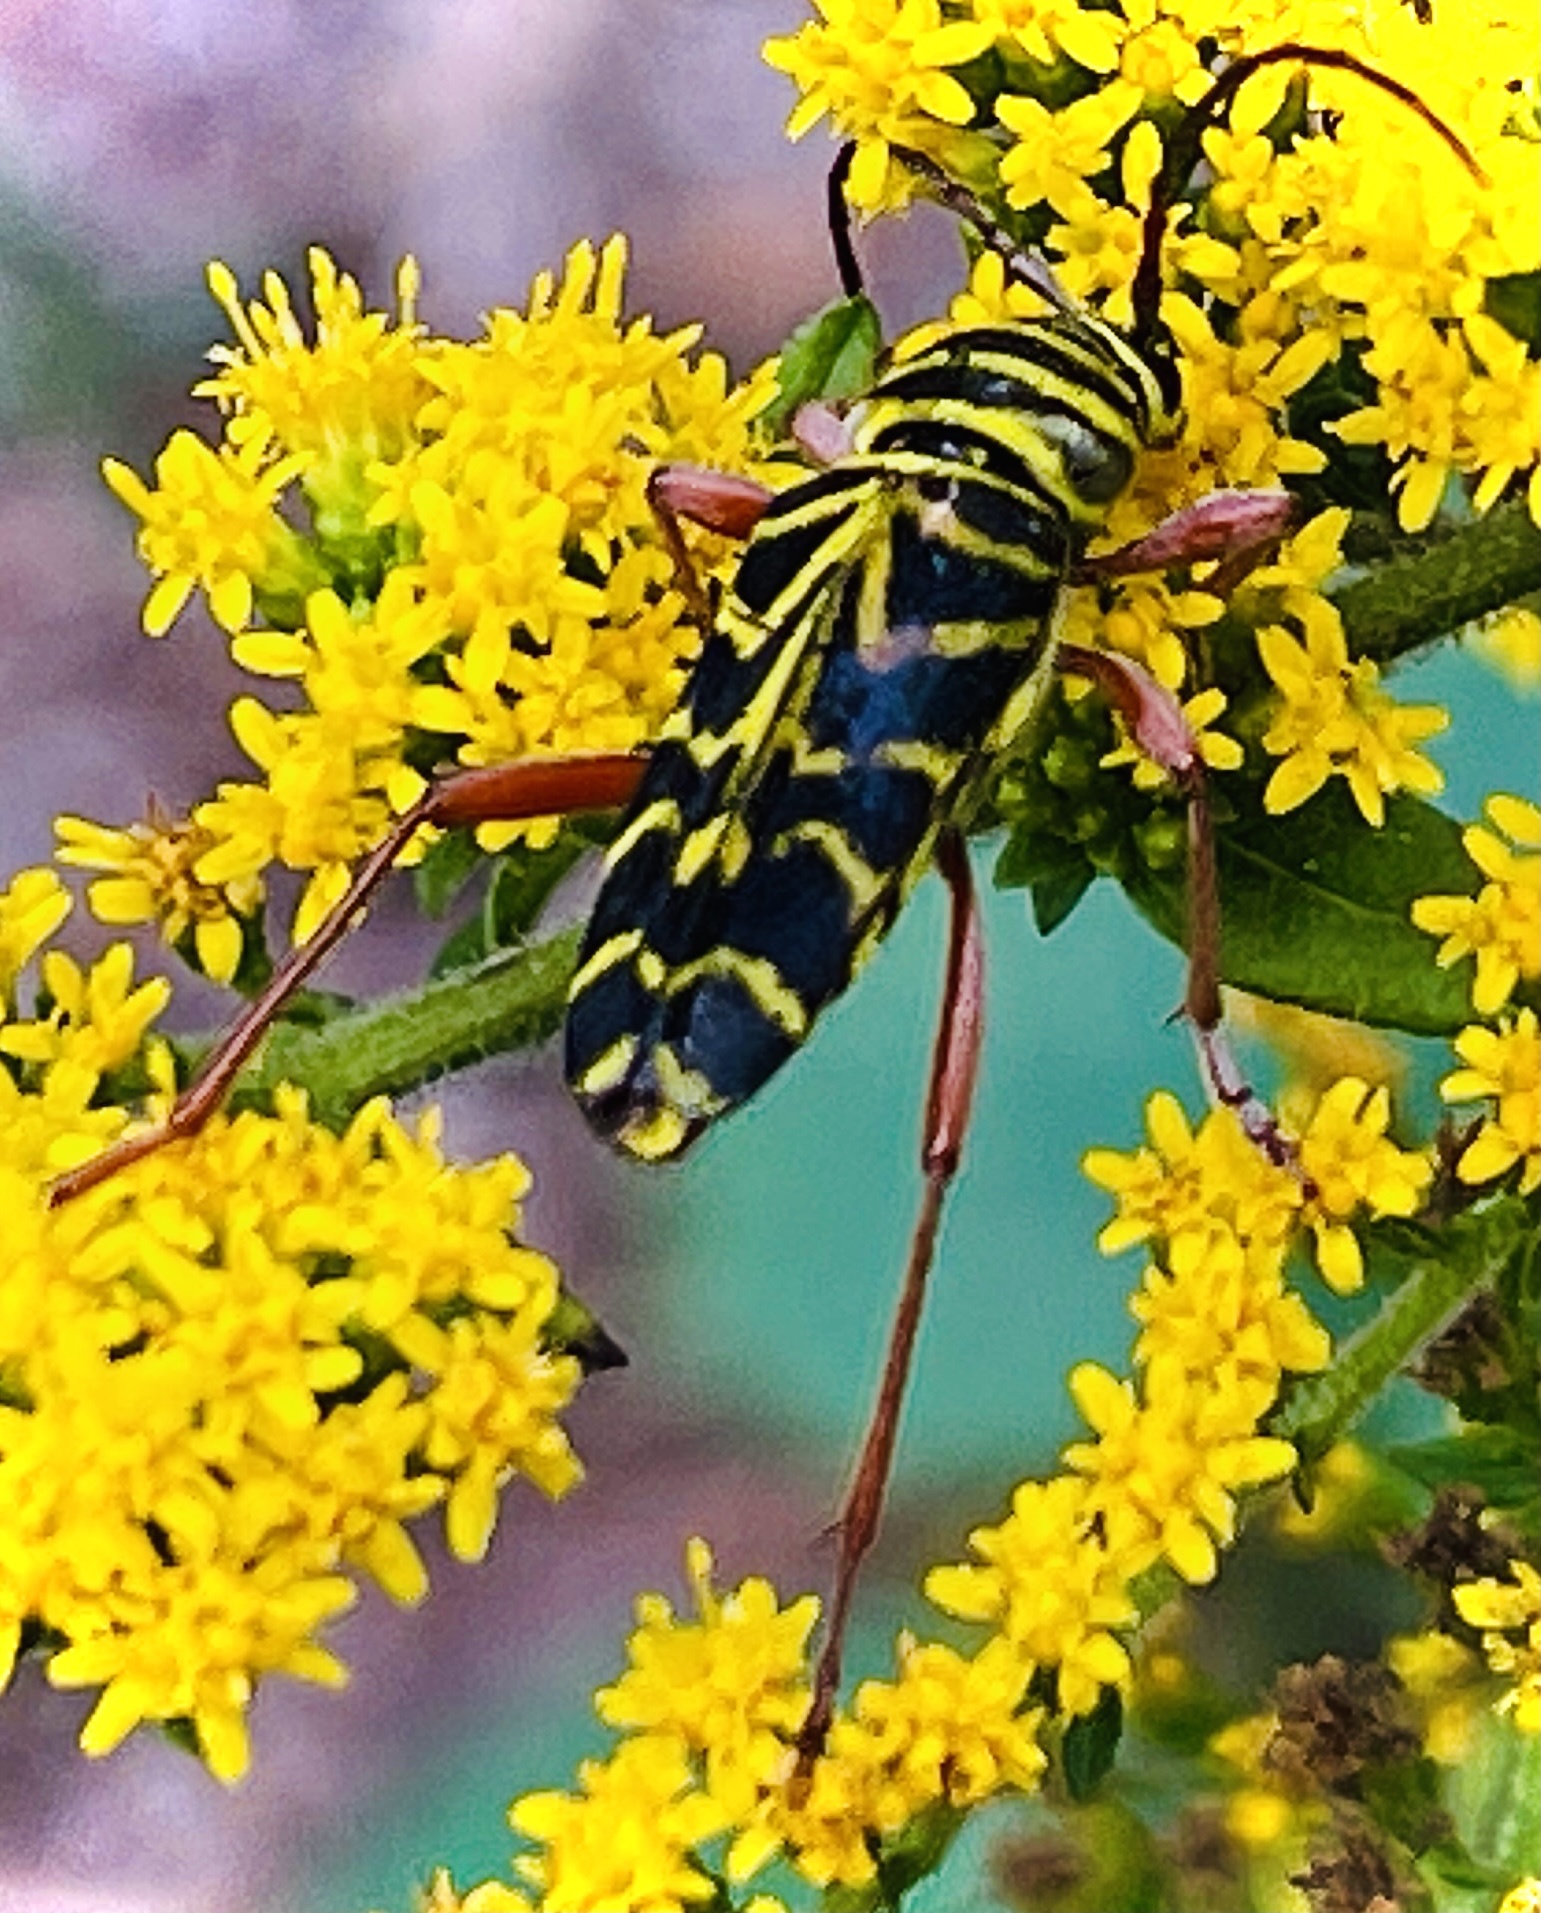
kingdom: Animalia
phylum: Arthropoda
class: Insecta
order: Coleoptera
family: Cerambycidae
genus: Megacyllene
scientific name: Megacyllene robiniae
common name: Locust borer
